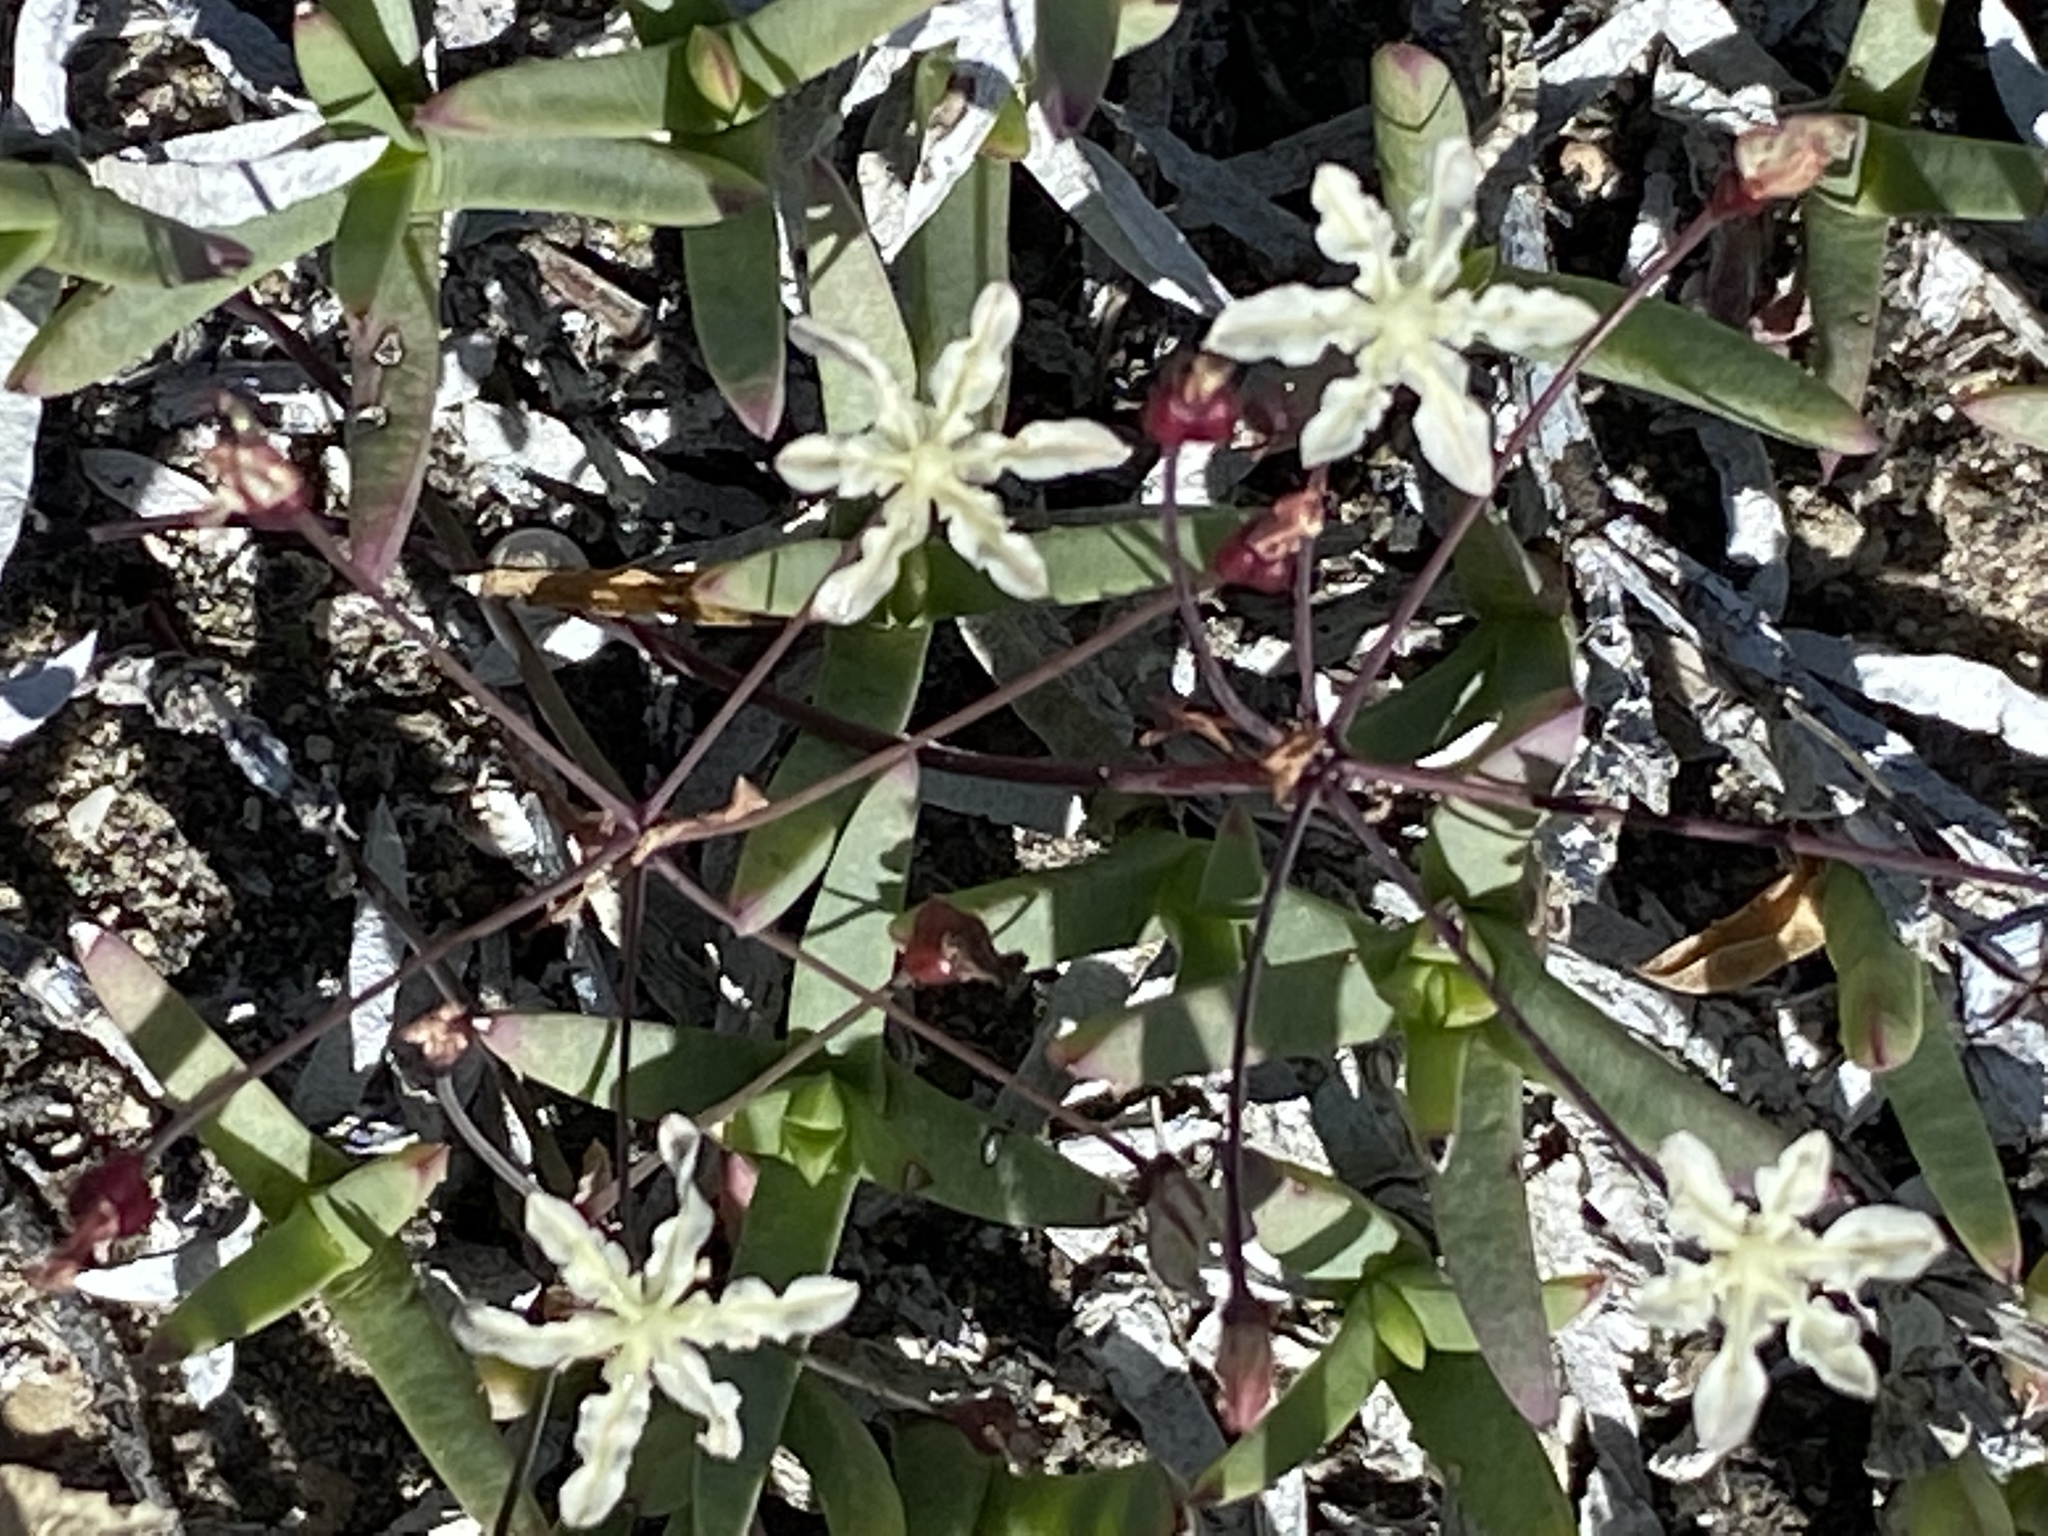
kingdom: Plantae
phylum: Tracheophyta
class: Liliopsida
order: Asparagales
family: Amaryllidaceae
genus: Strumaria
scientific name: Strumaria gemmata
